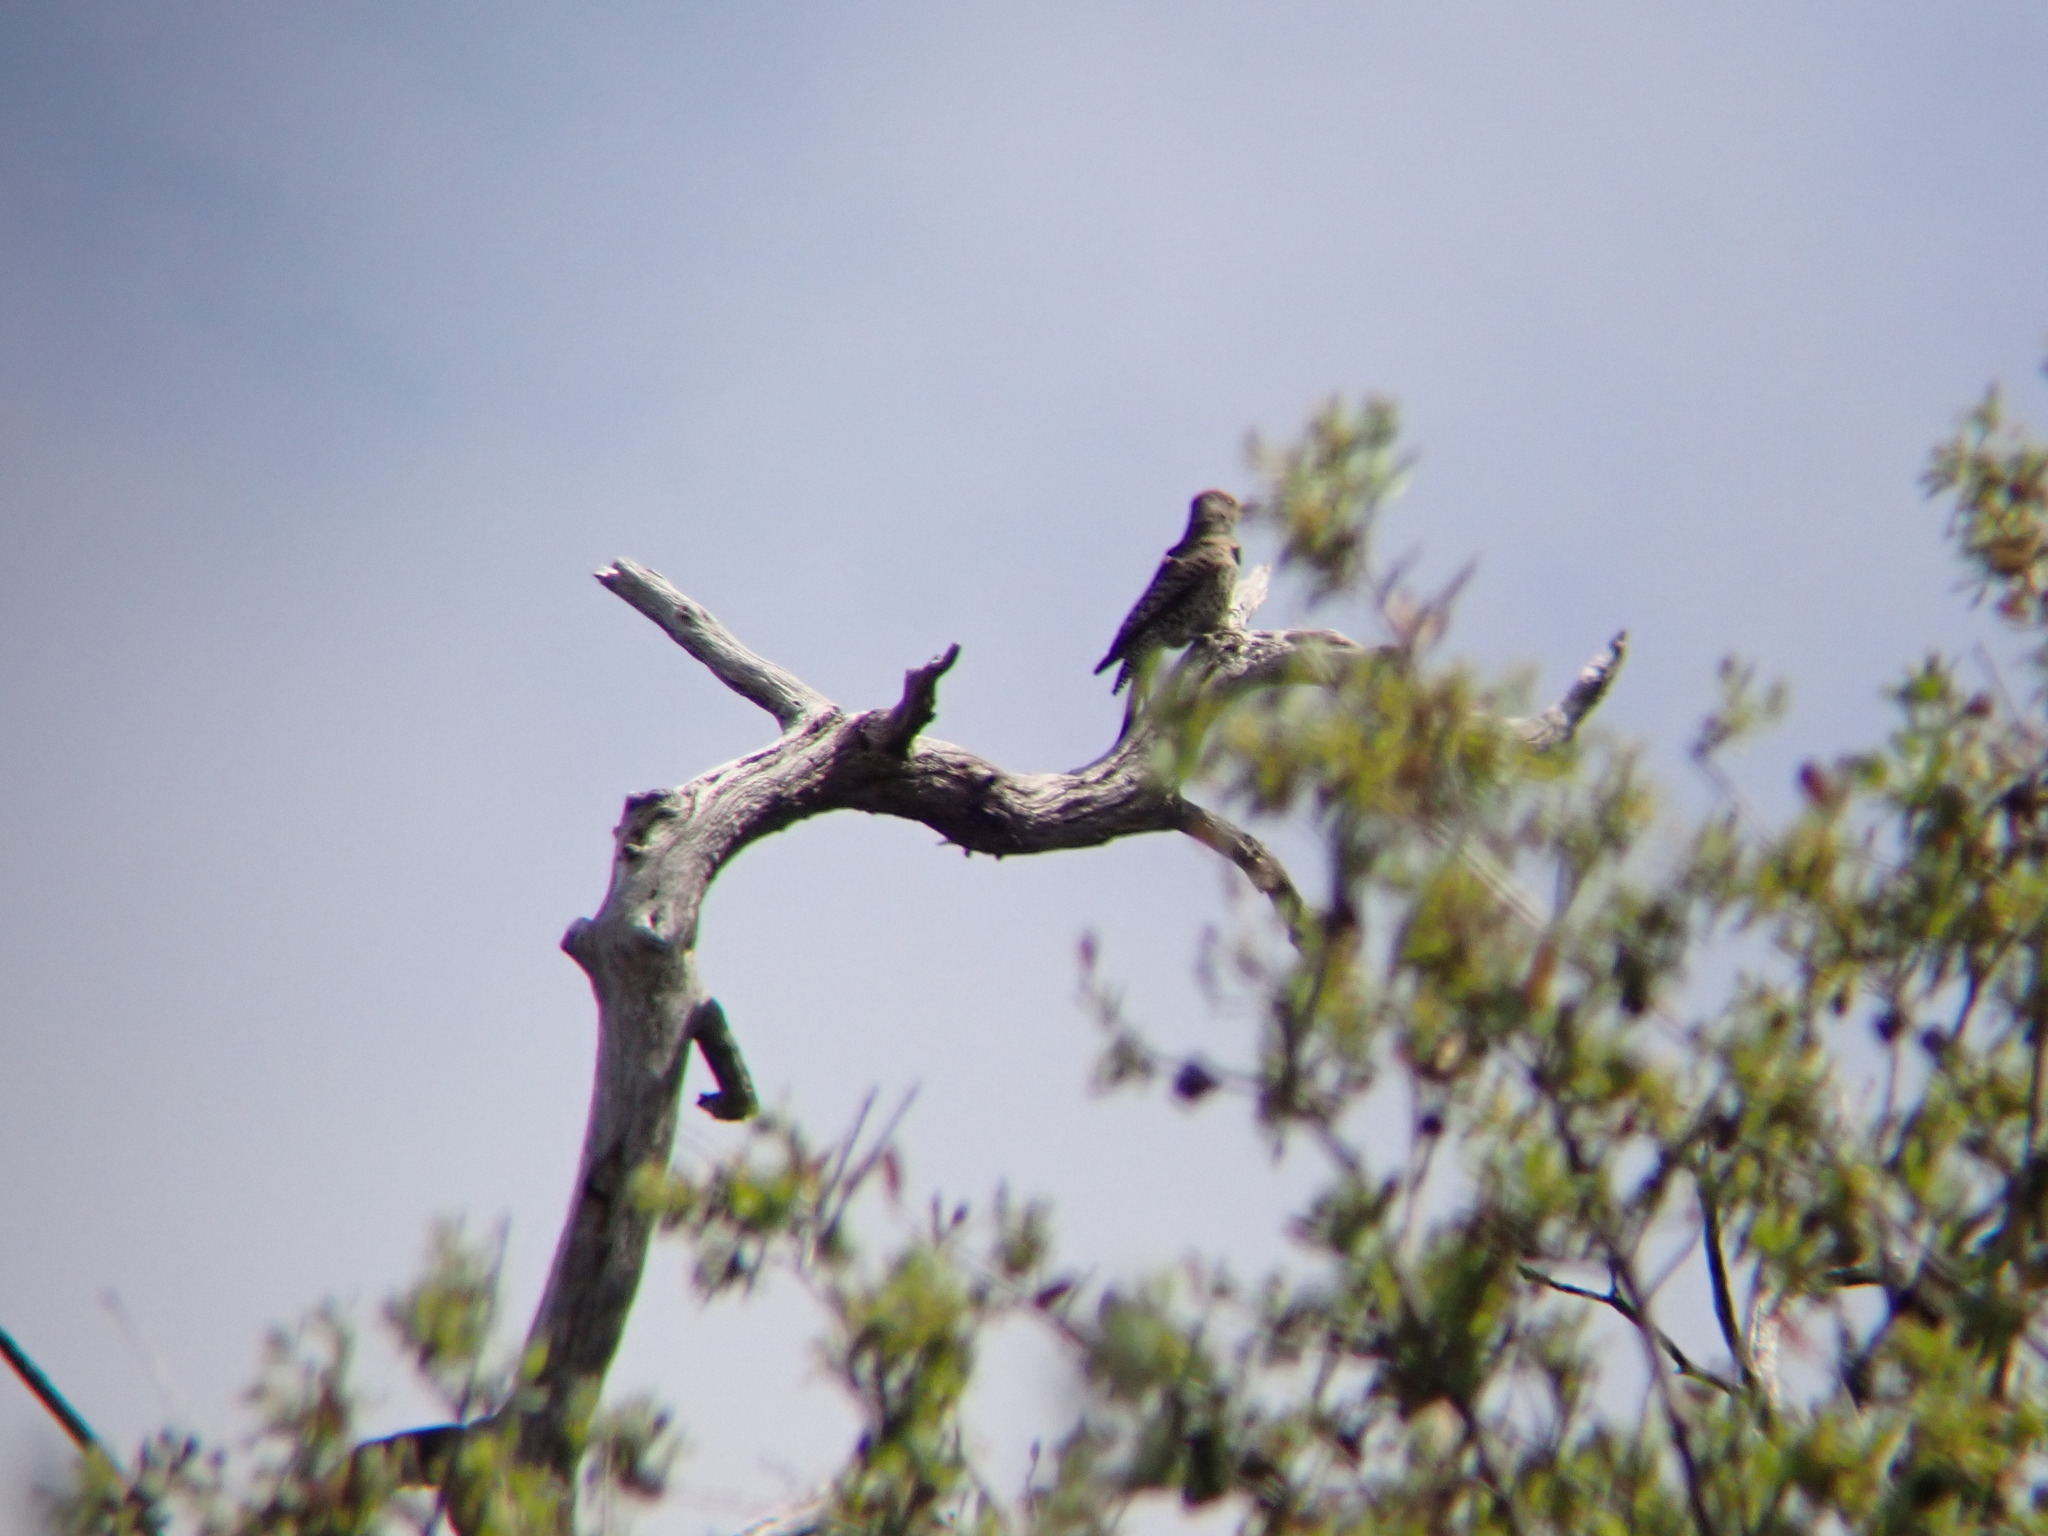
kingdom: Animalia
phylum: Chordata
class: Aves
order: Piciformes
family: Picidae
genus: Colaptes
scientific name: Colaptes auratus
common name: Northern flicker
